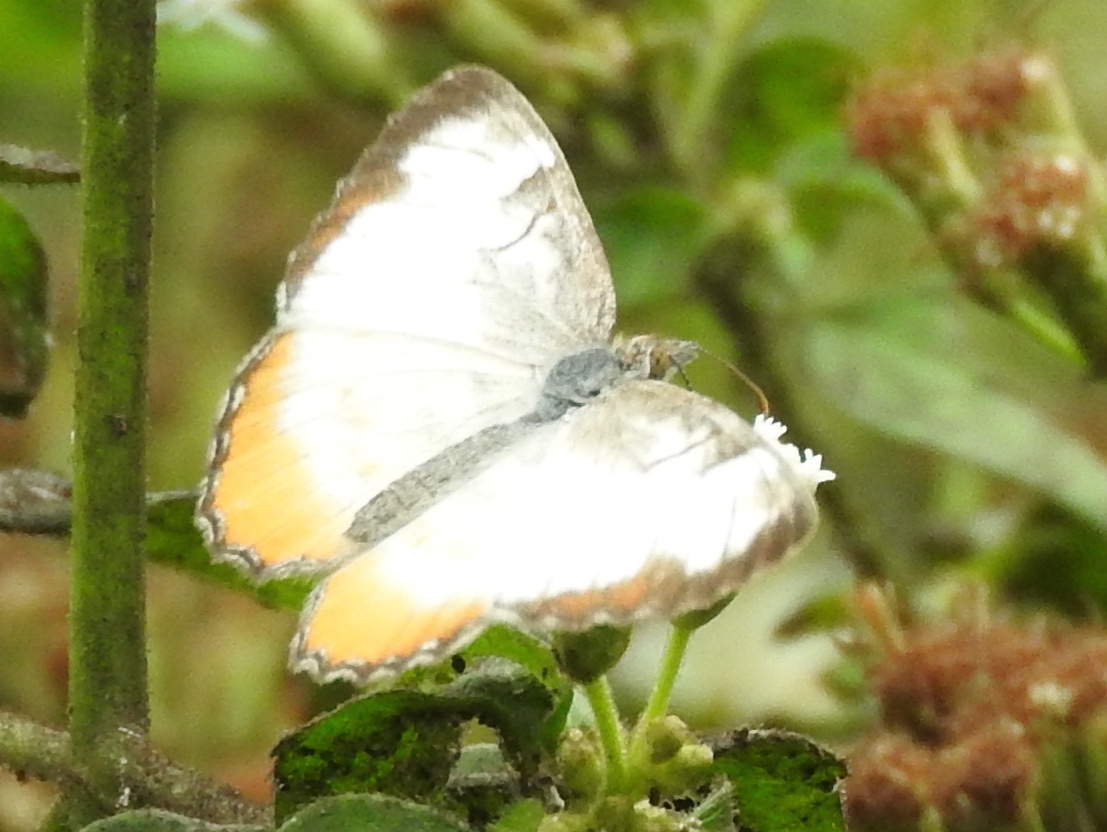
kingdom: Animalia
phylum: Arthropoda
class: Insecta
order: Lepidoptera
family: Nymphalidae
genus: Mestra
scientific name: Mestra amymone
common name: Common mestra
